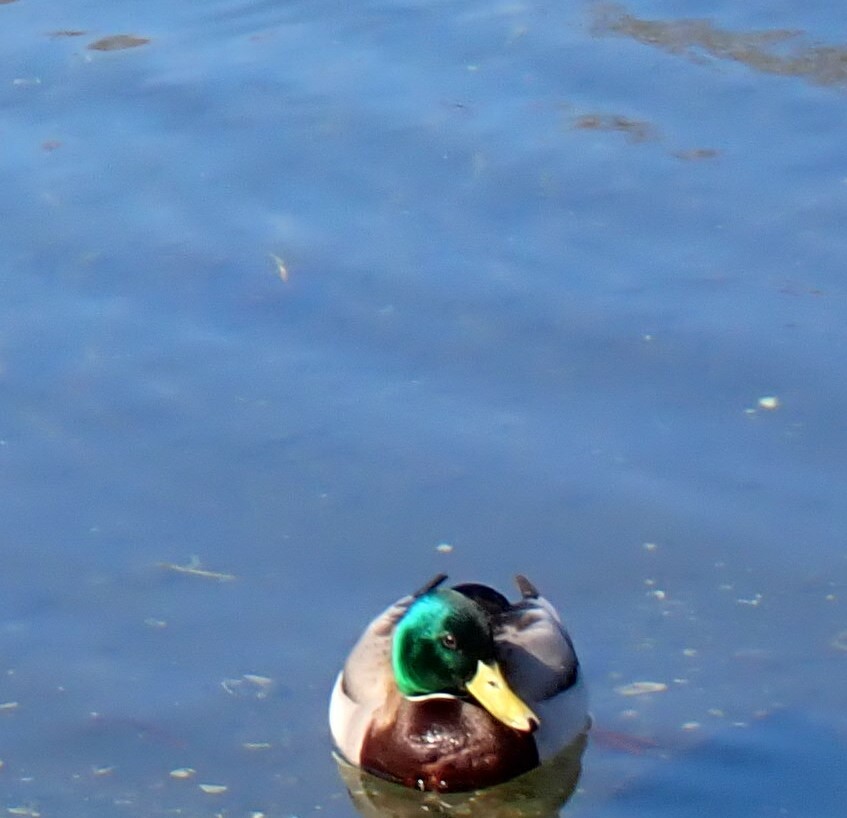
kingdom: Animalia
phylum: Chordata
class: Aves
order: Anseriformes
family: Anatidae
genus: Anas
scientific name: Anas platyrhynchos
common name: Mallard
